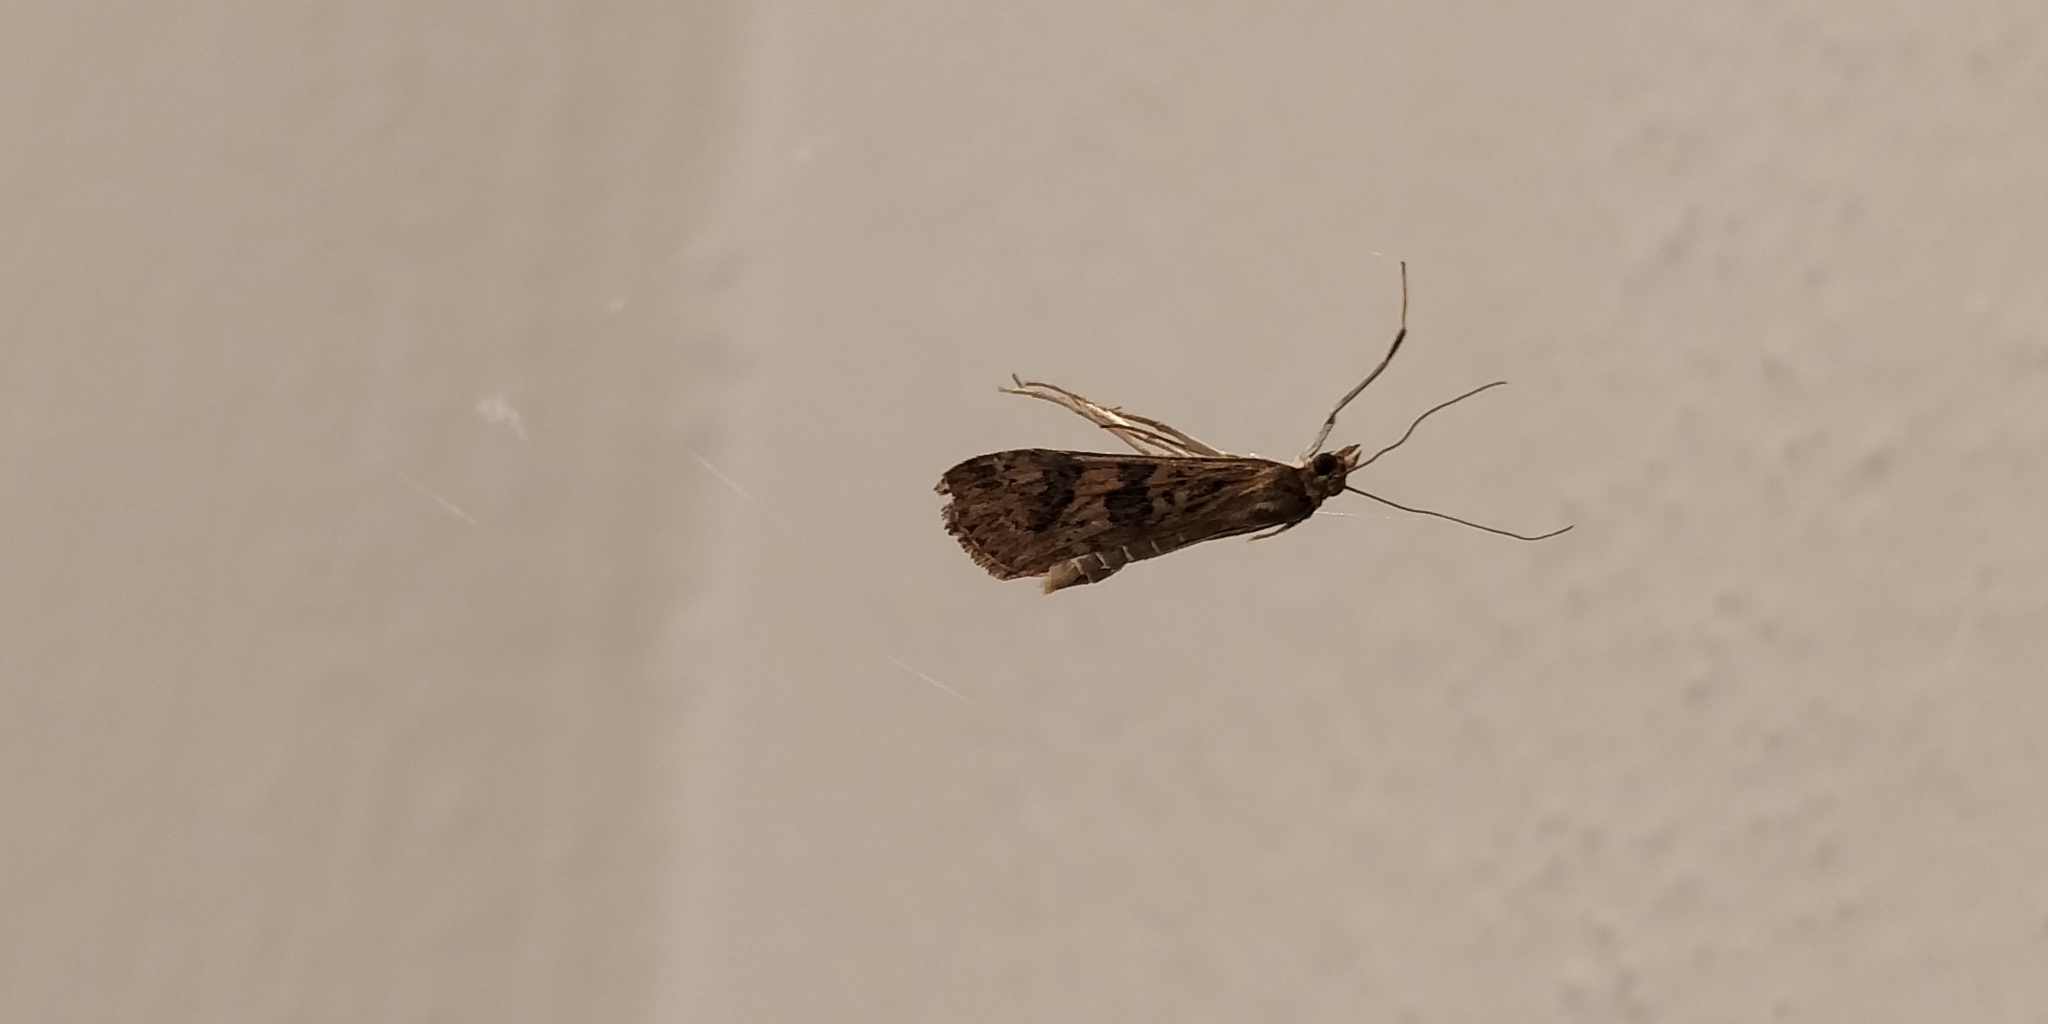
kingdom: Animalia
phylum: Arthropoda
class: Insecta
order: Lepidoptera
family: Crambidae
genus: Nomophila
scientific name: Nomophila noctuella
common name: Rush veneer
